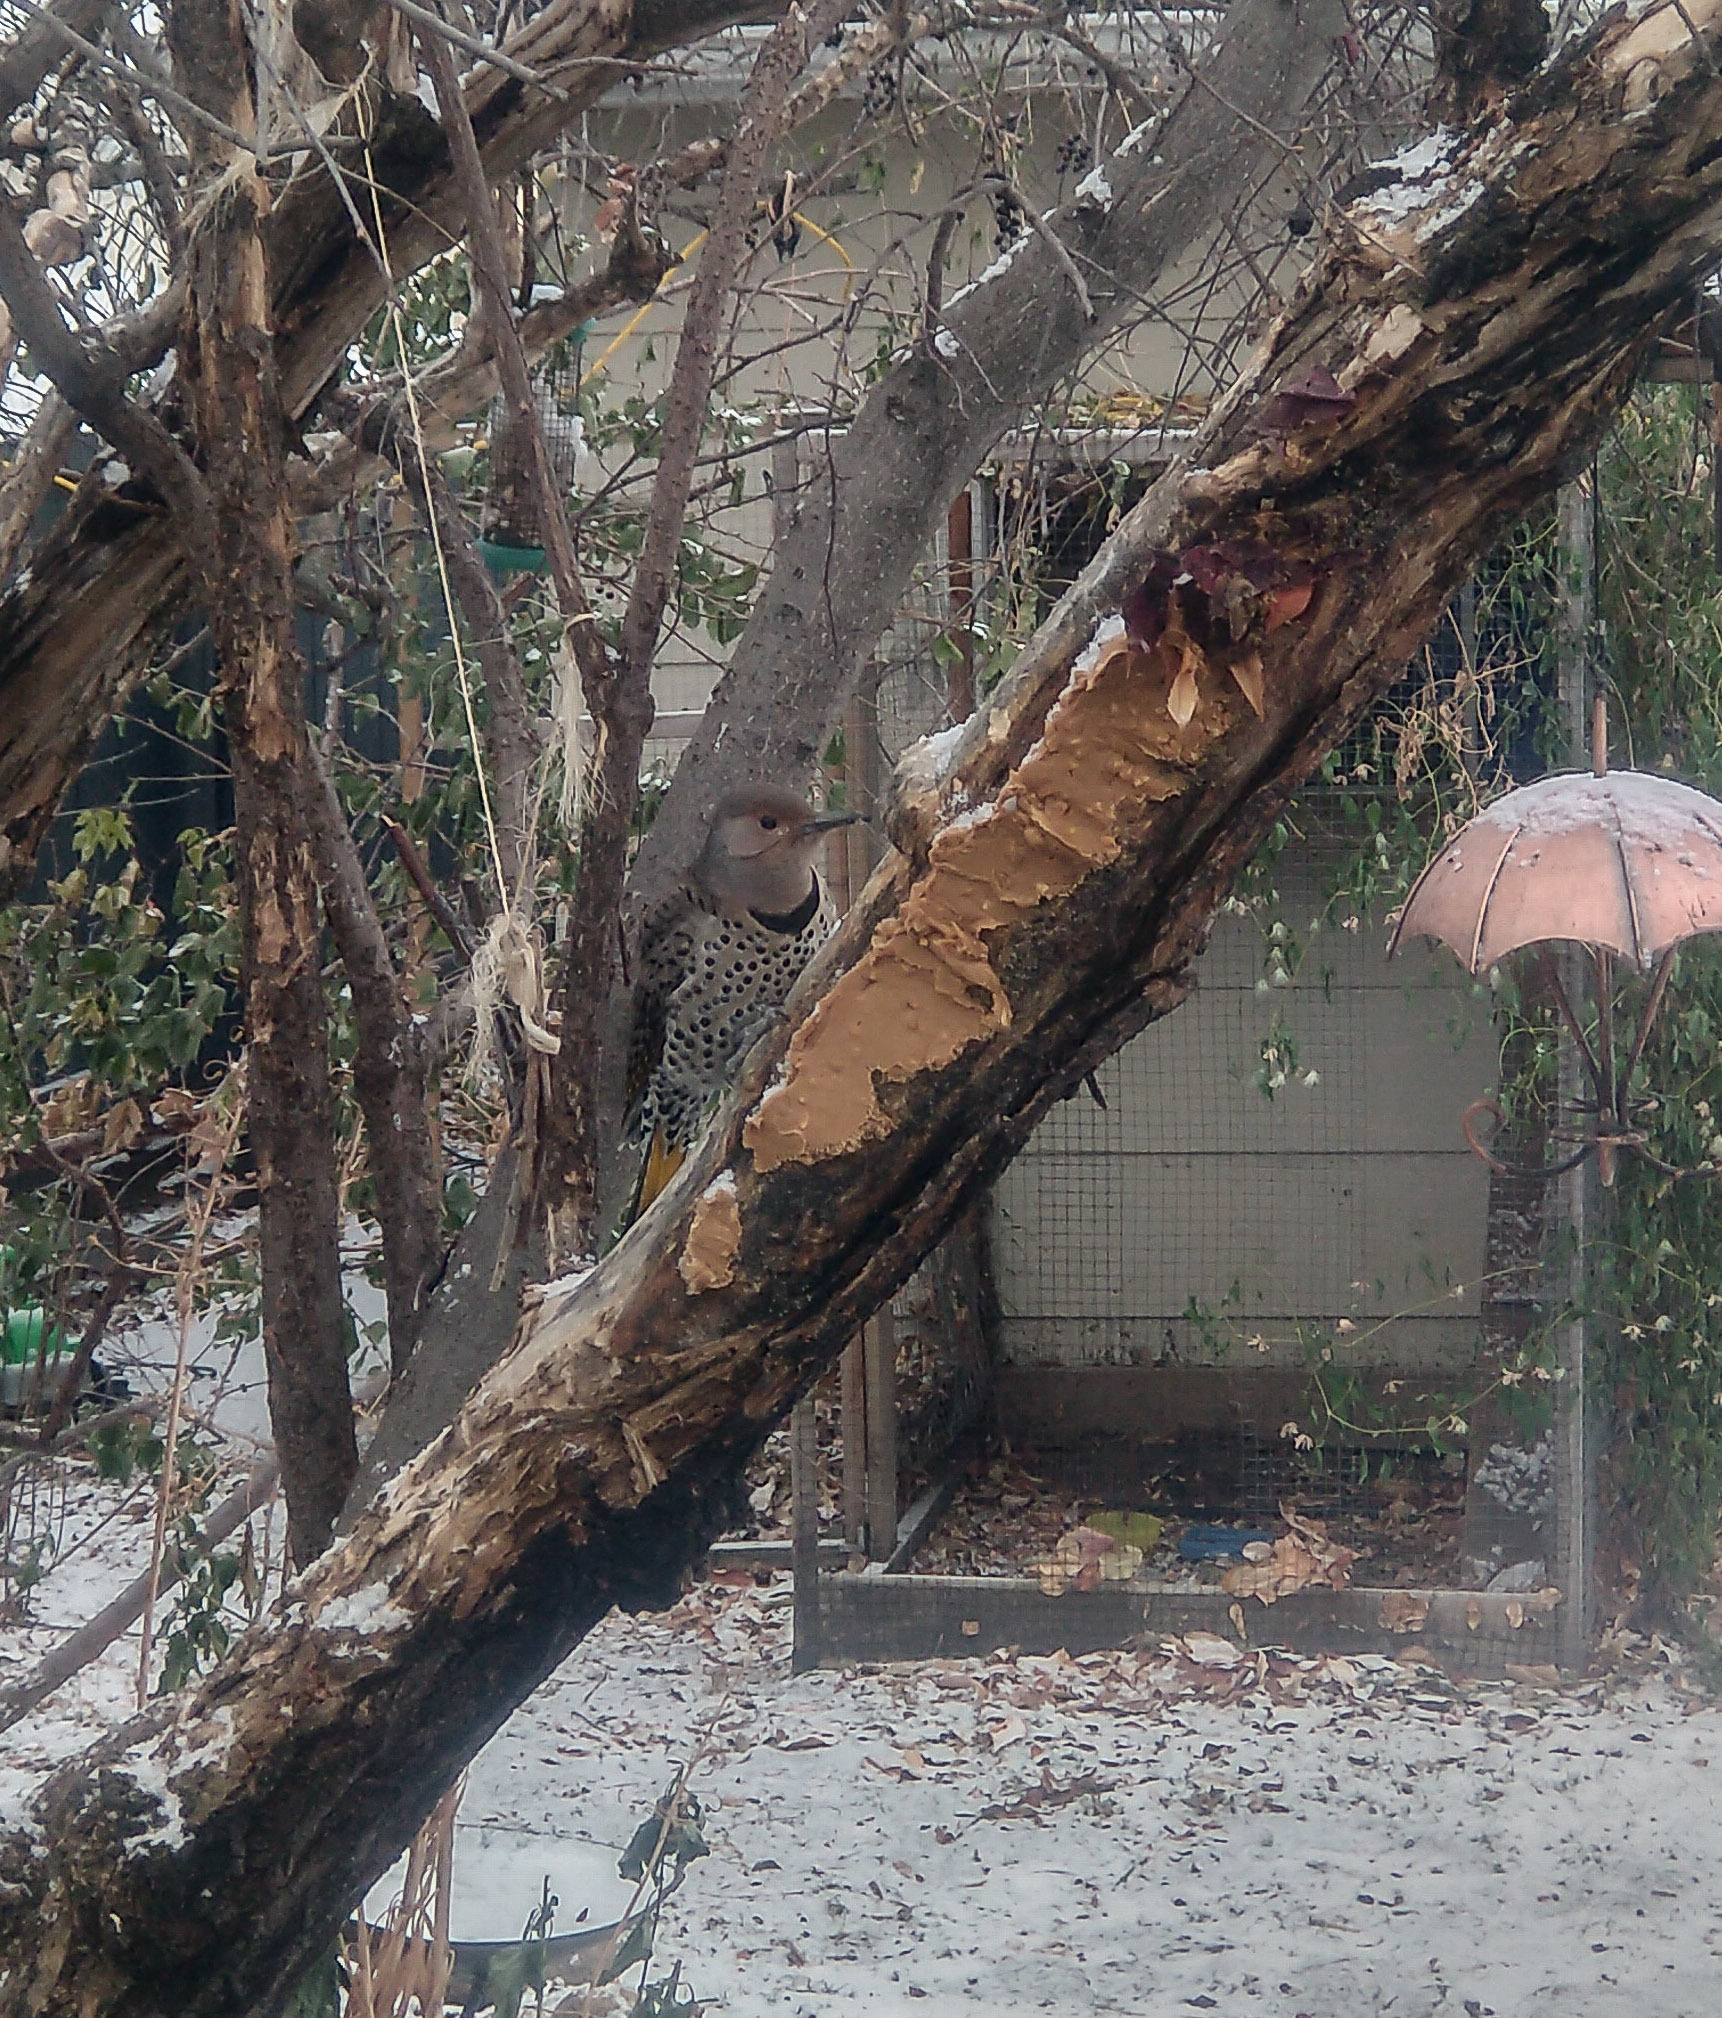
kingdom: Animalia
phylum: Chordata
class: Aves
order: Piciformes
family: Picidae
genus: Colaptes
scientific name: Colaptes auratus
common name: Northern flicker
